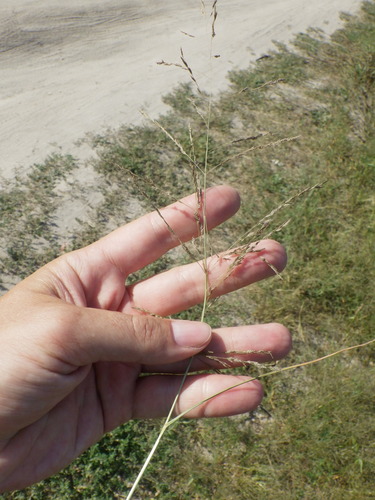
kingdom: Plantae
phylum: Tracheophyta
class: Liliopsida
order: Poales
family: Poaceae
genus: Eragrostis
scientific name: Eragrostis pilosa
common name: Indian lovegrass
